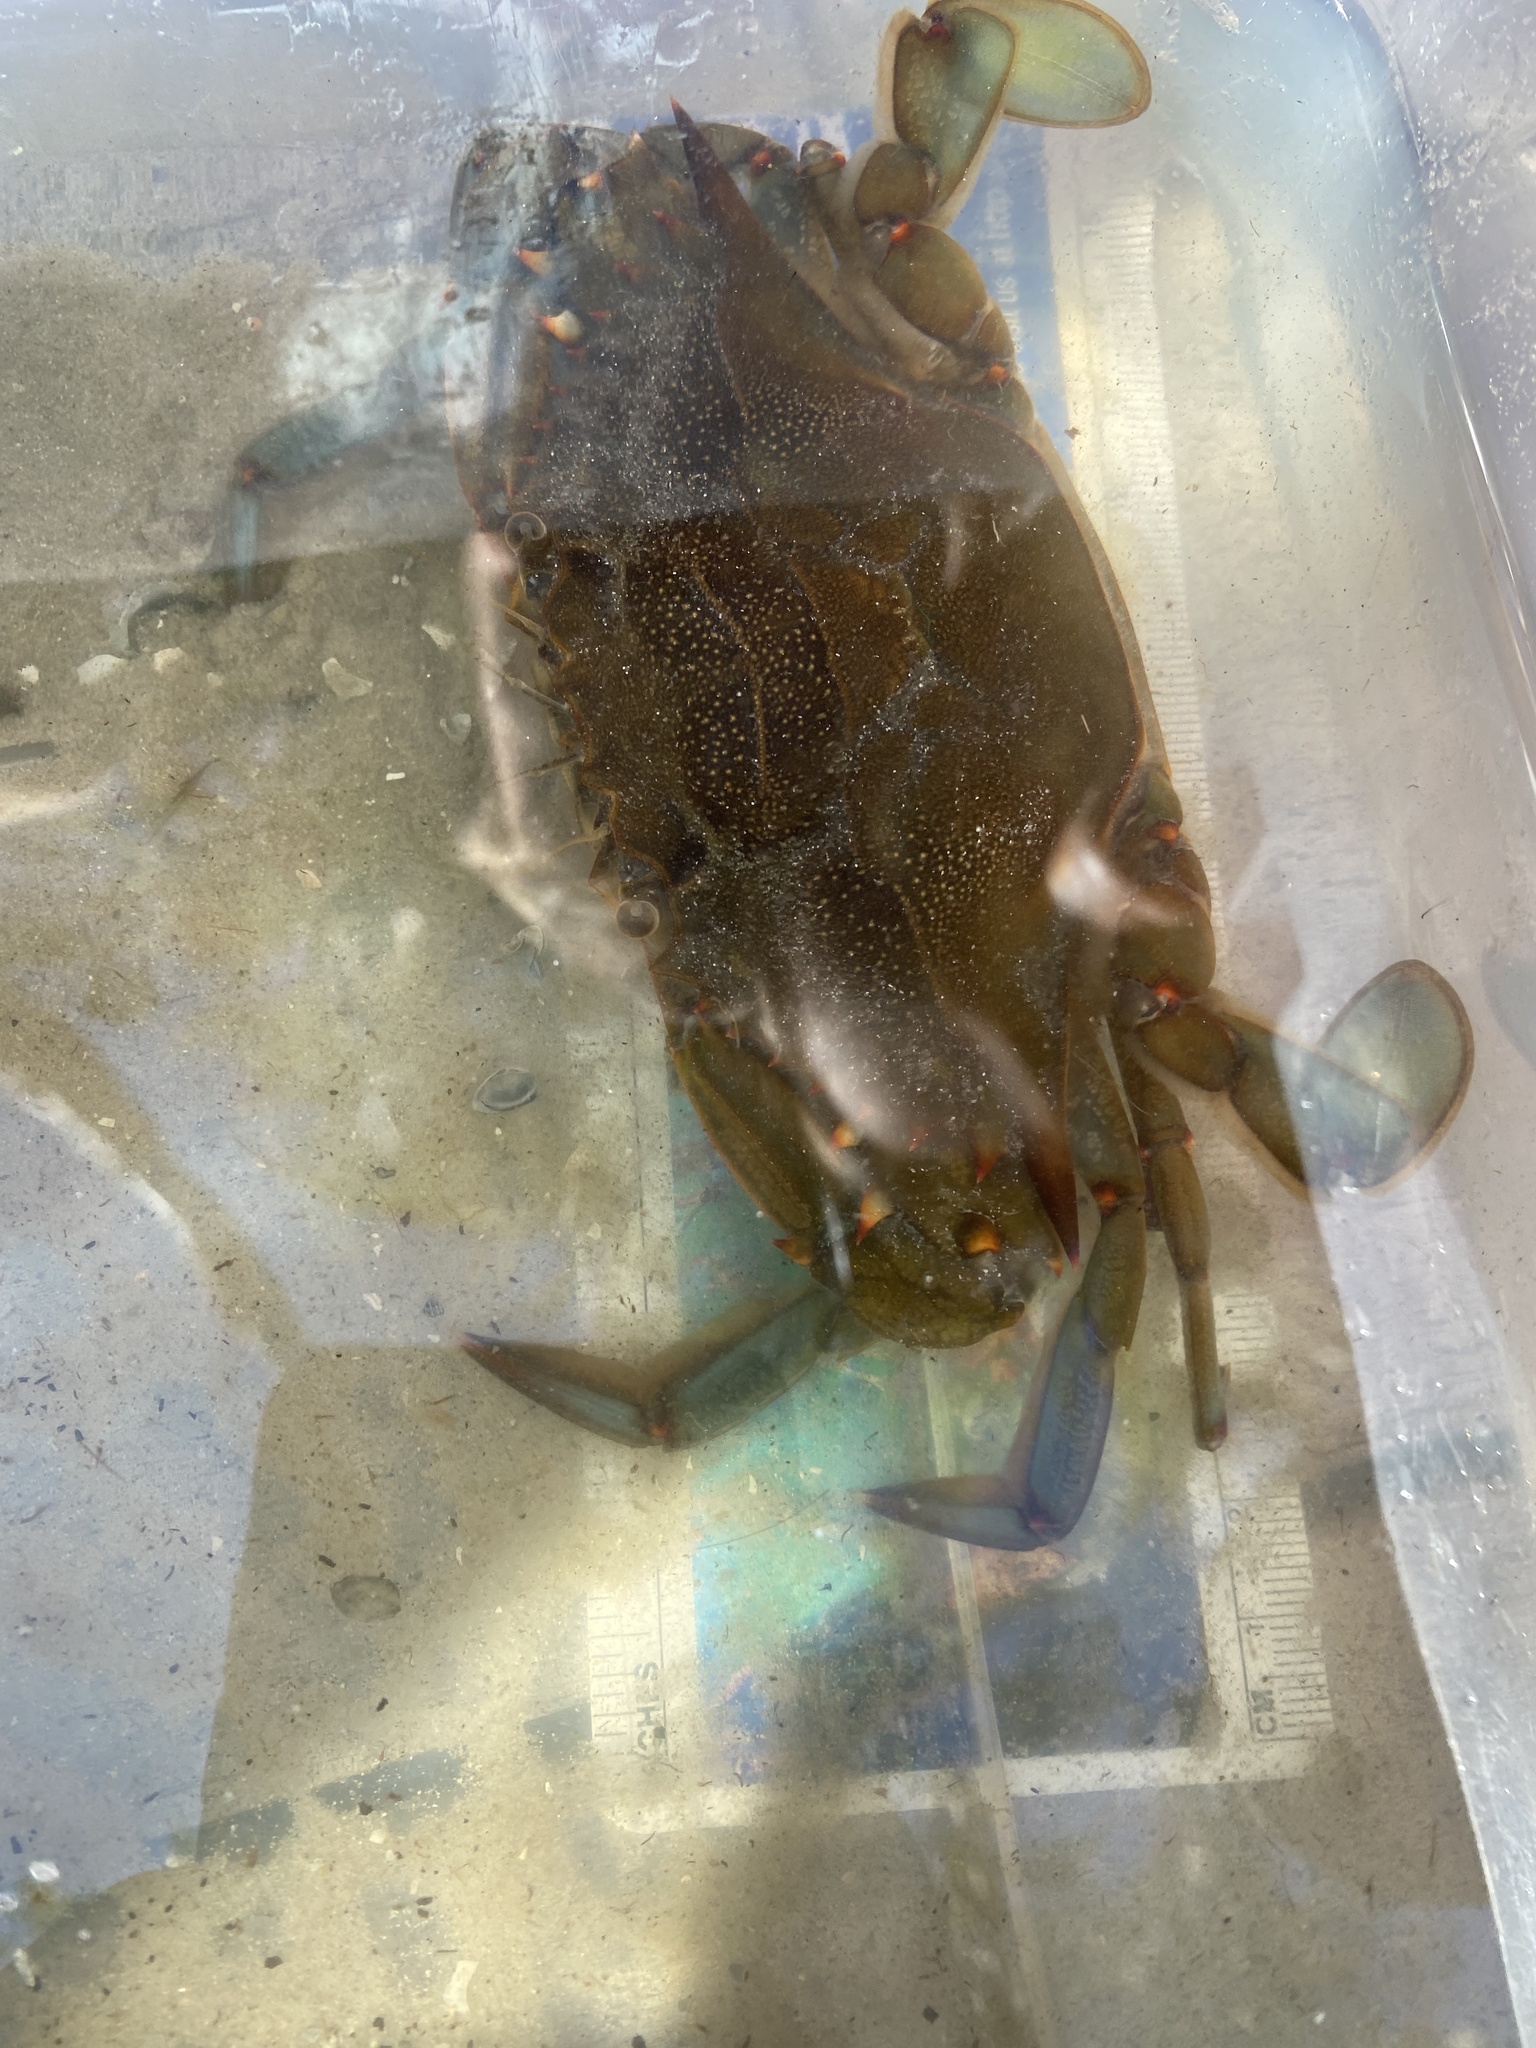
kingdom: Animalia
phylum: Arthropoda
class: Malacostraca
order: Decapoda
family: Portunidae
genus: Callinectes
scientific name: Callinectes sapidus
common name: Blue crab
